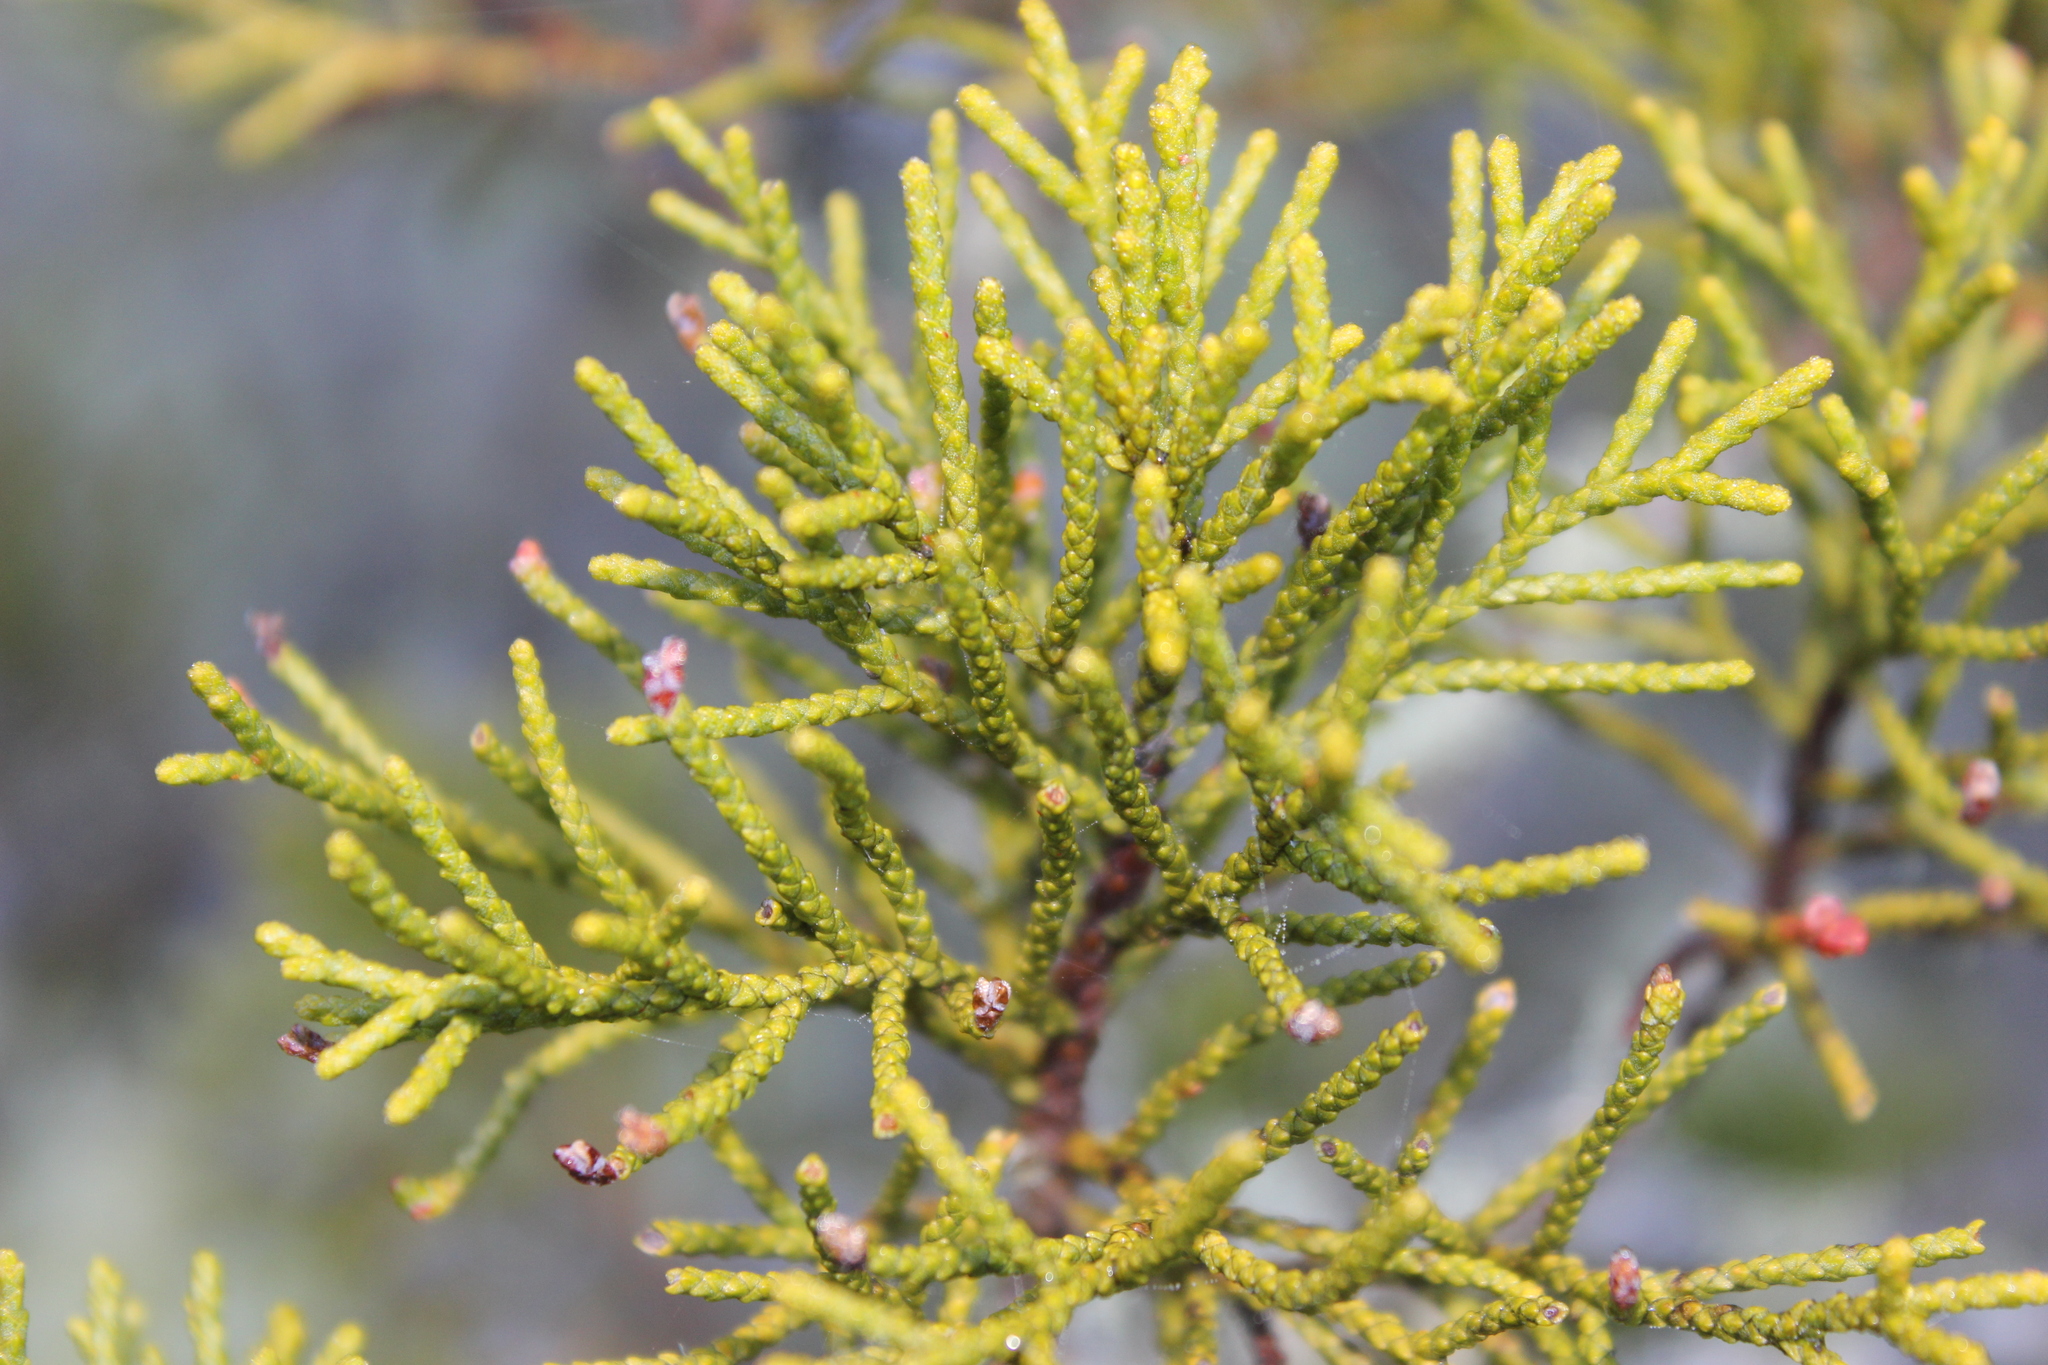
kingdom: Plantae
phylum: Tracheophyta
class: Pinopsida
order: Pinales
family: Podocarpaceae
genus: Halocarpus
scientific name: Halocarpus bidwillii
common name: Bog pine
